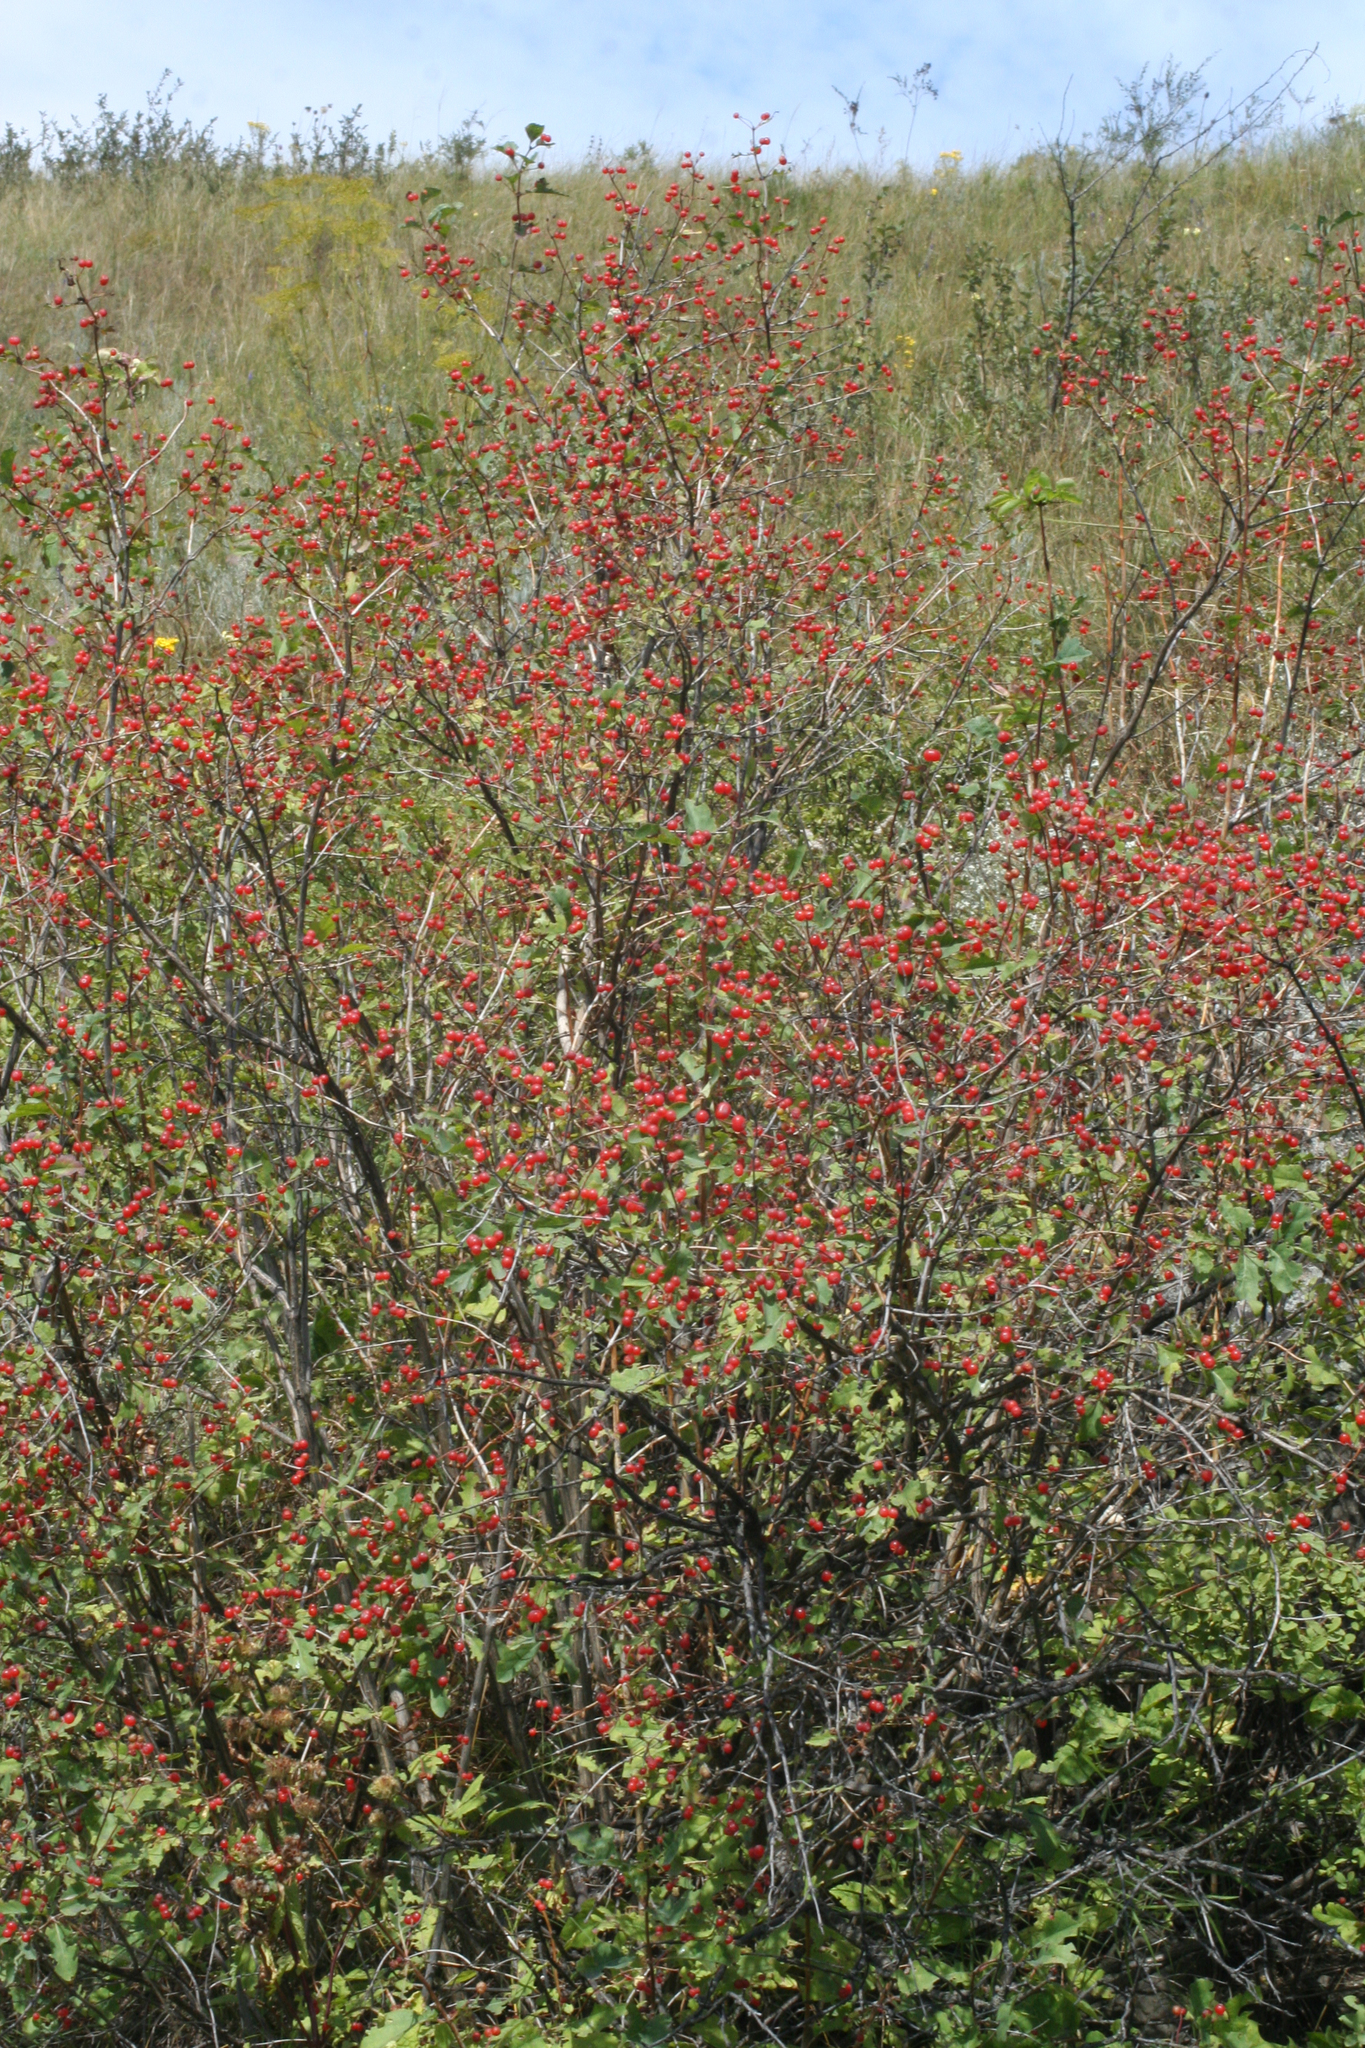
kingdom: Plantae
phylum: Tracheophyta
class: Magnoliopsida
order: Dipsacales
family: Caprifoliaceae
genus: Lonicera
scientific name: Lonicera tatarica
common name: Tatarian honeysuckle
